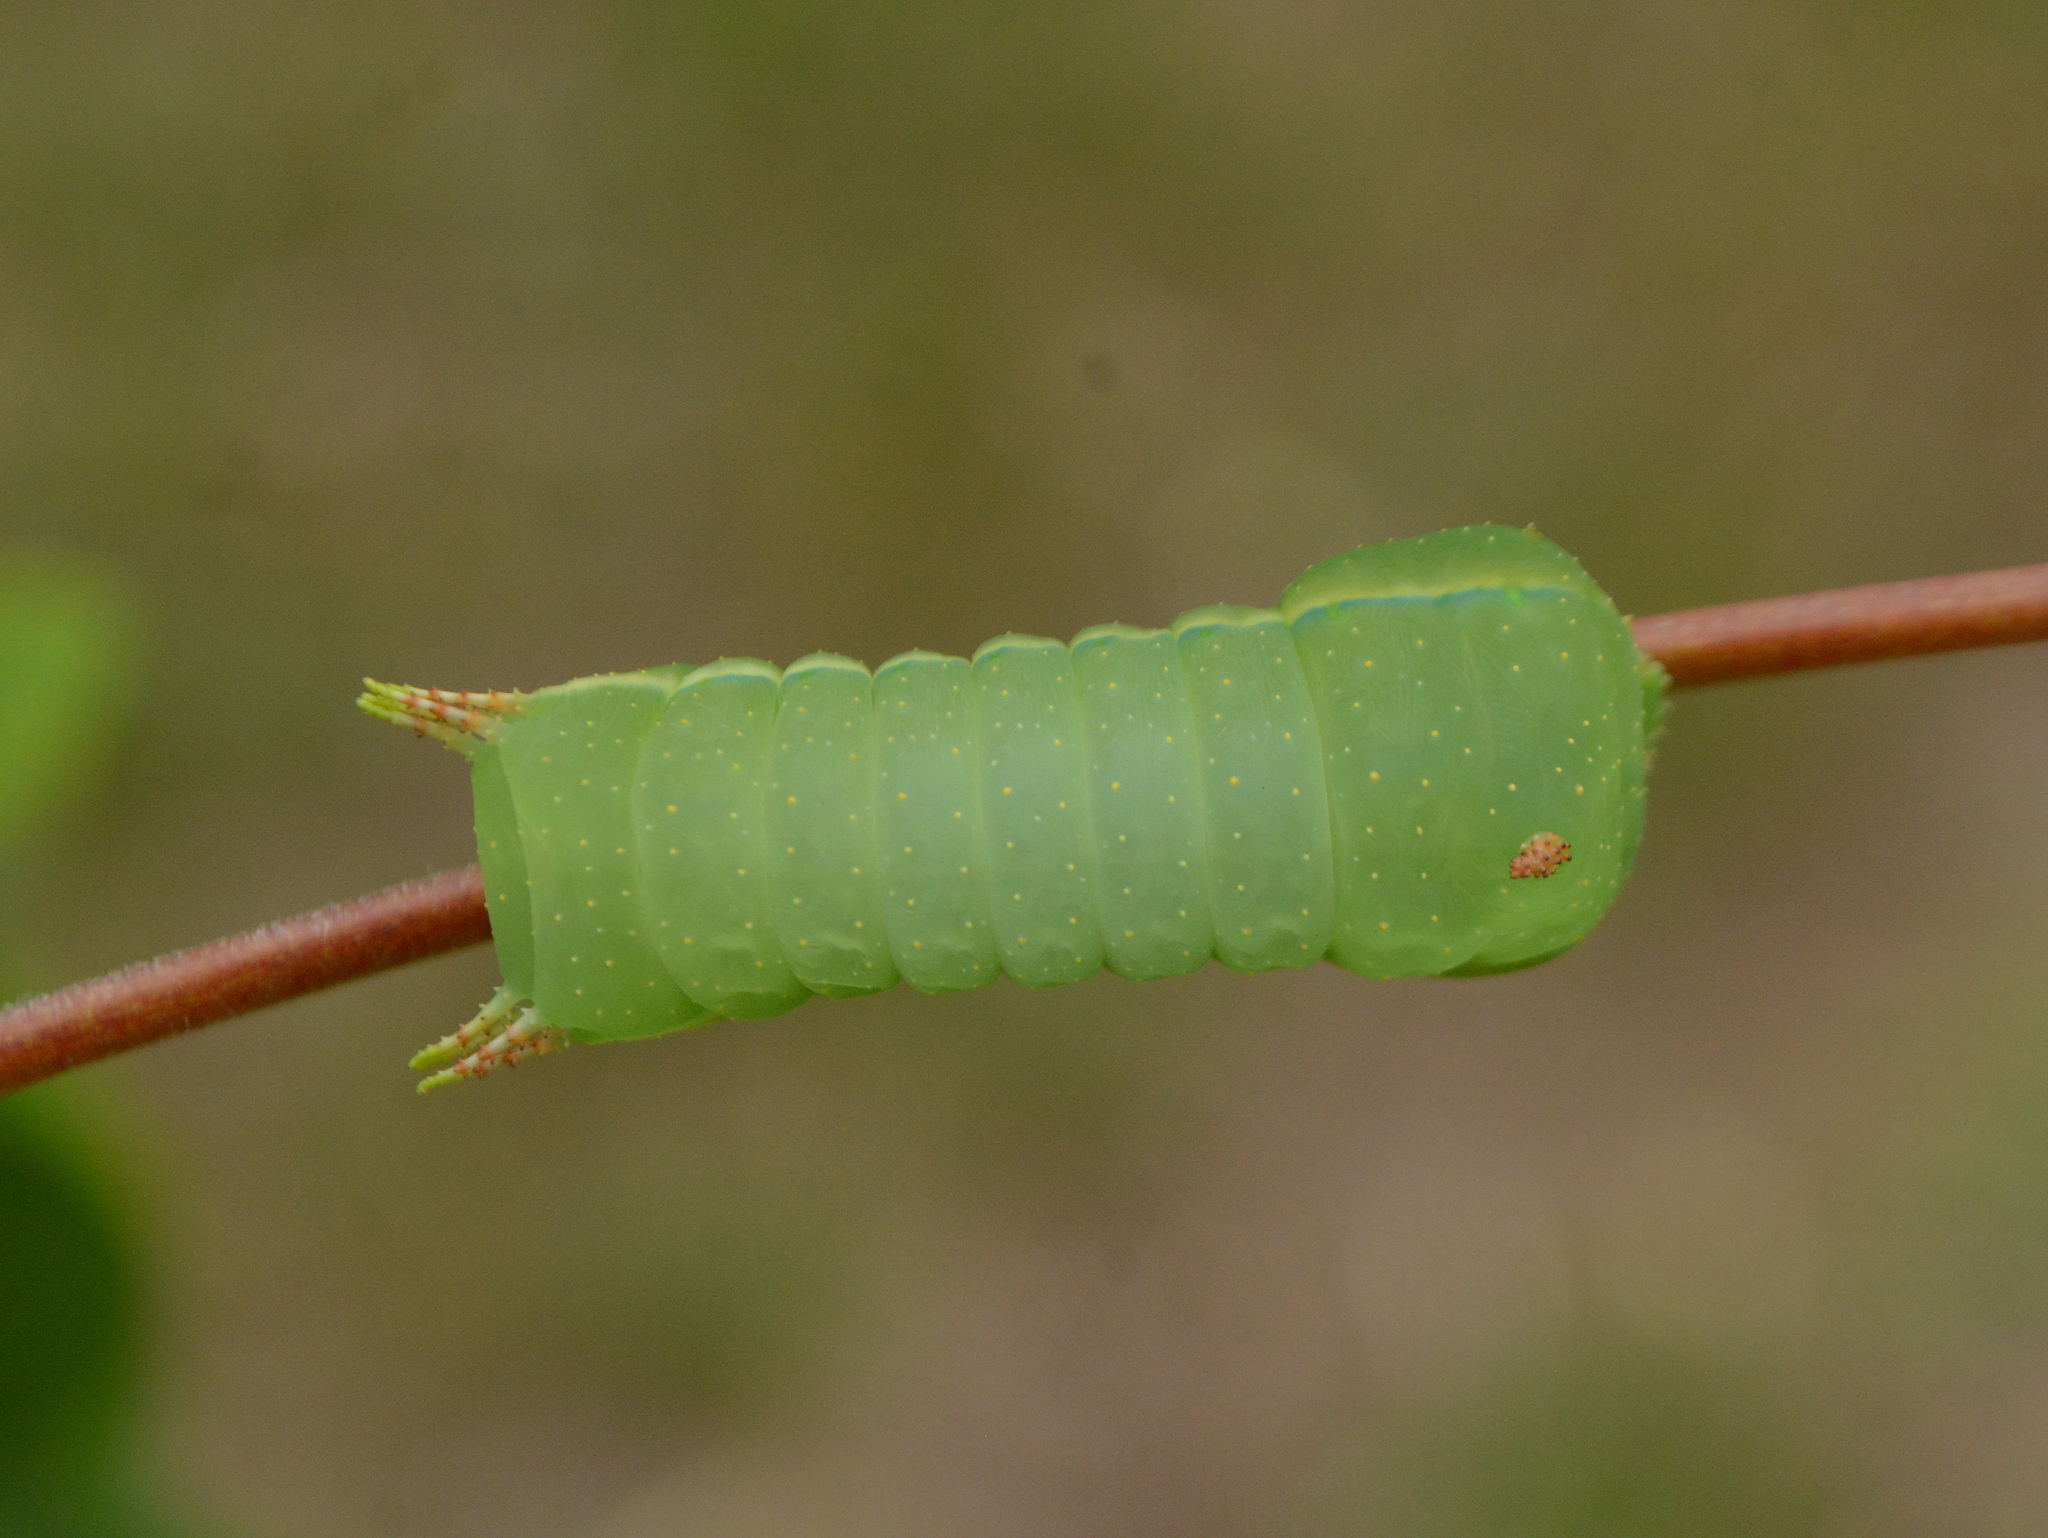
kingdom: Animalia
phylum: Arthropoda
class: Insecta
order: Lepidoptera
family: Saturniidae
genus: Syssphinx
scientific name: Syssphinx molina
